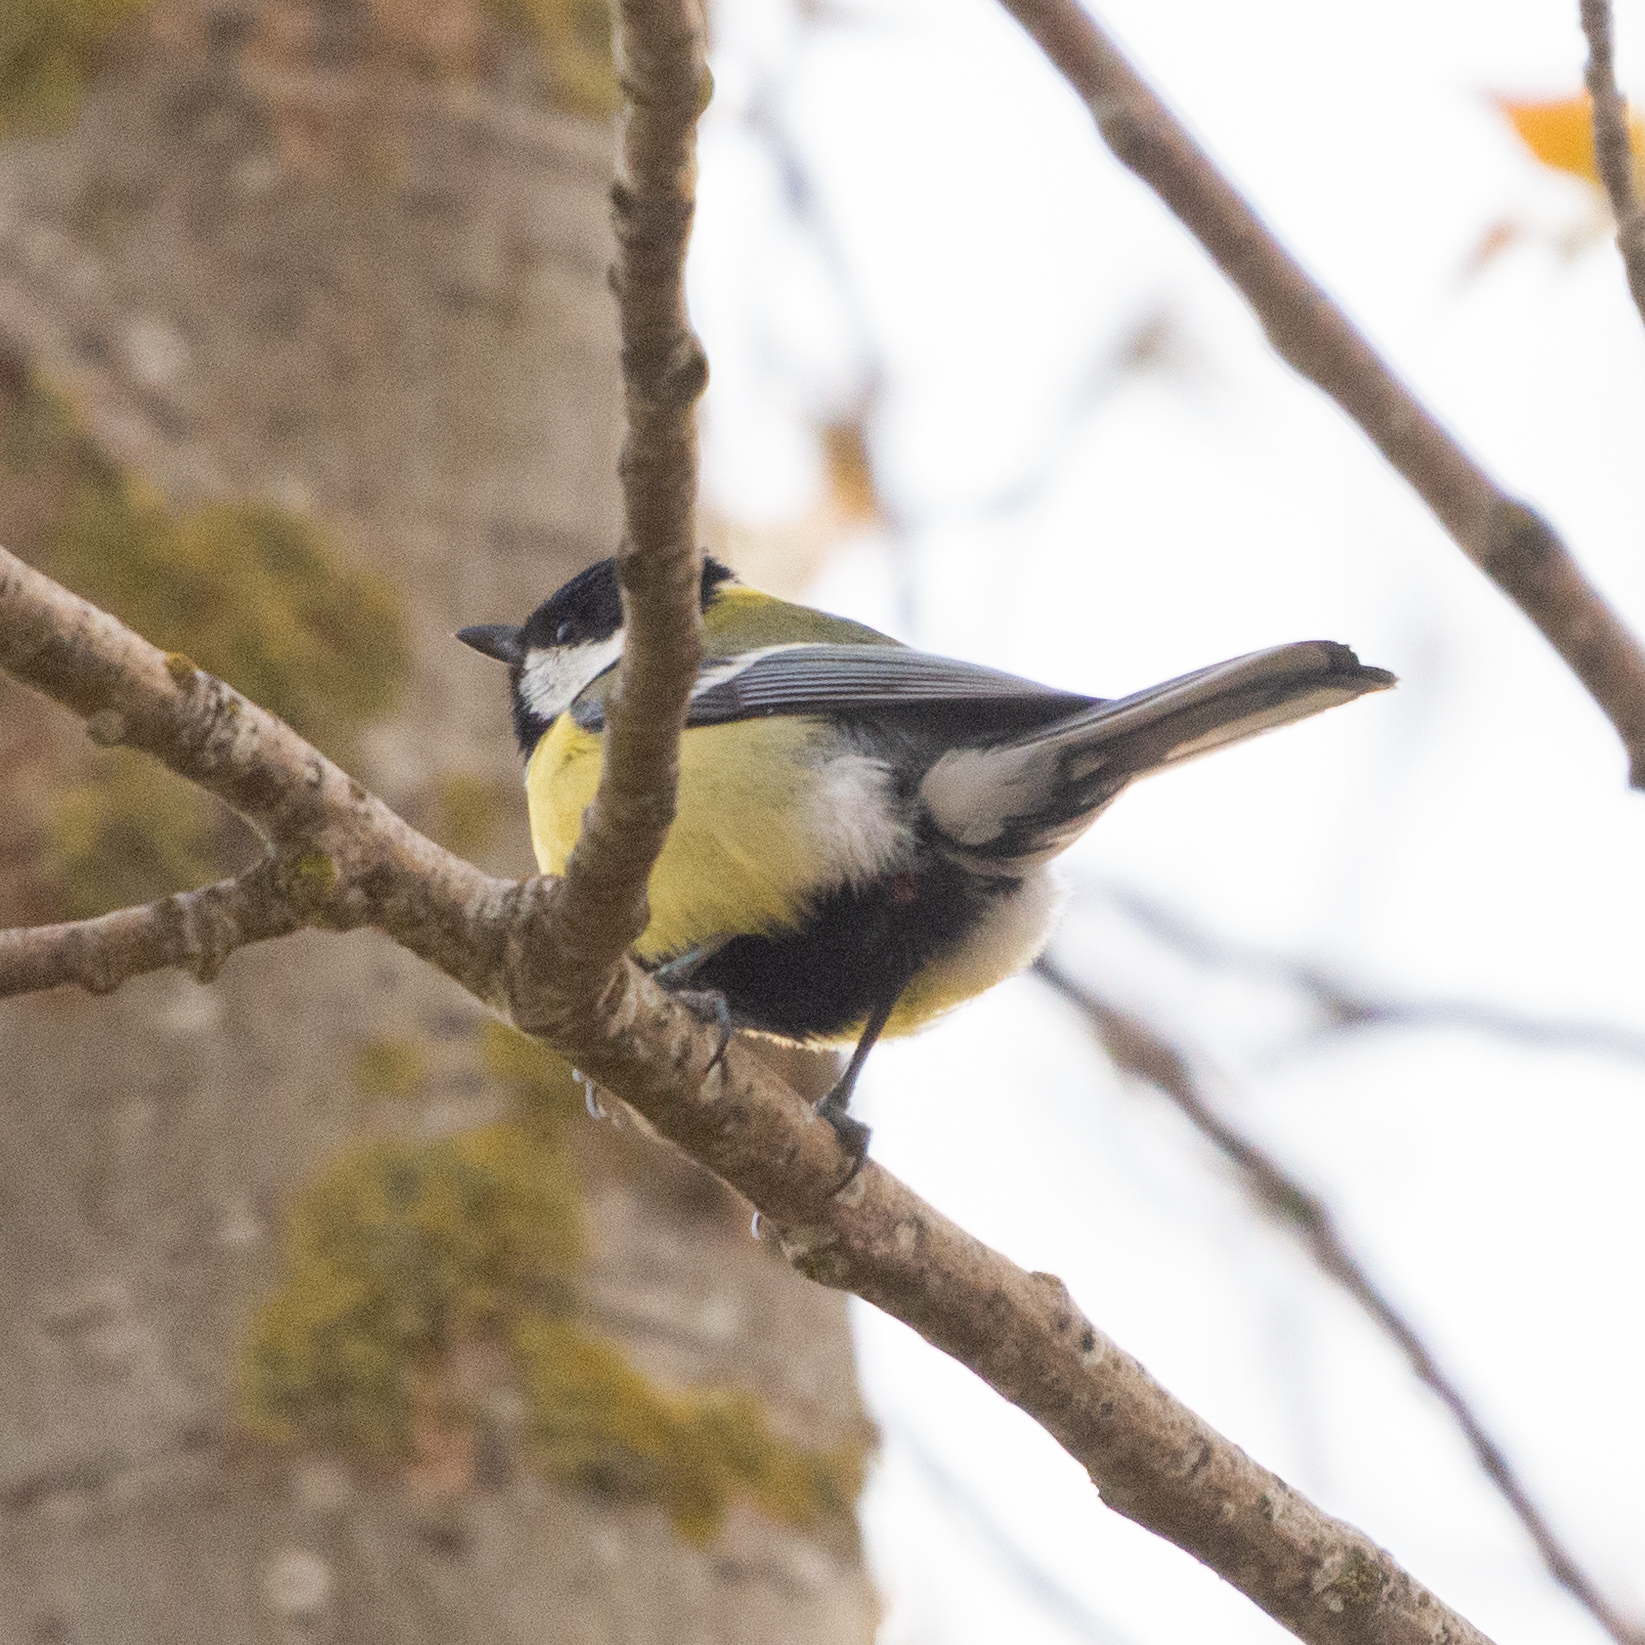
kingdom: Animalia
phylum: Chordata
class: Aves
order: Passeriformes
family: Paridae
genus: Parus
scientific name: Parus major
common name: Great tit
